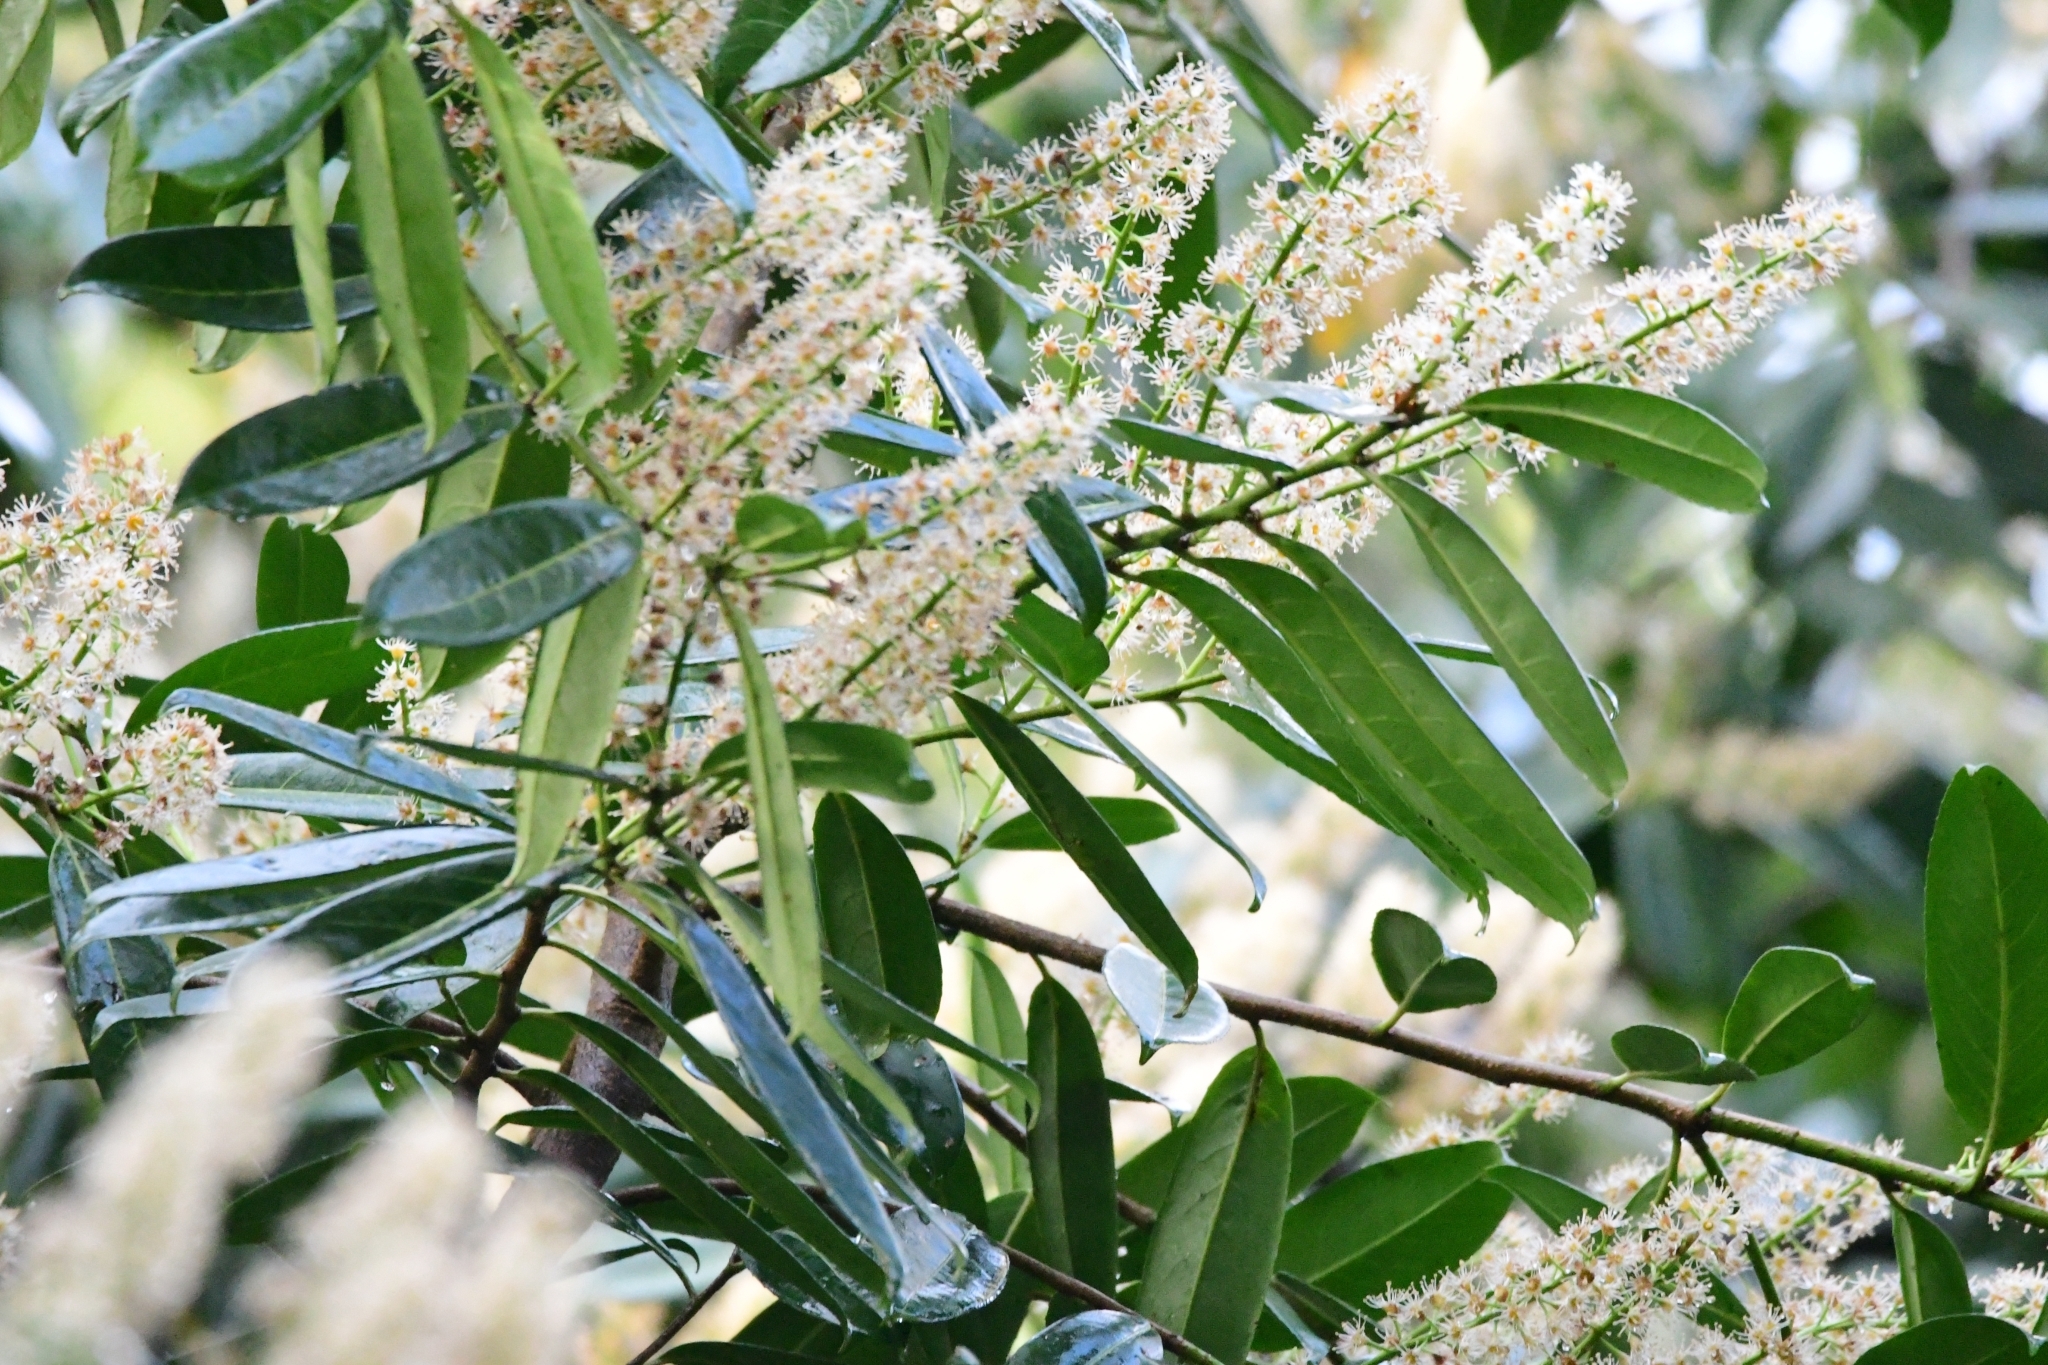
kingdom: Plantae
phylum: Tracheophyta
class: Magnoliopsida
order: Rosales
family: Rosaceae
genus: Prunus
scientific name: Prunus laurocerasus
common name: Cherry laurel
